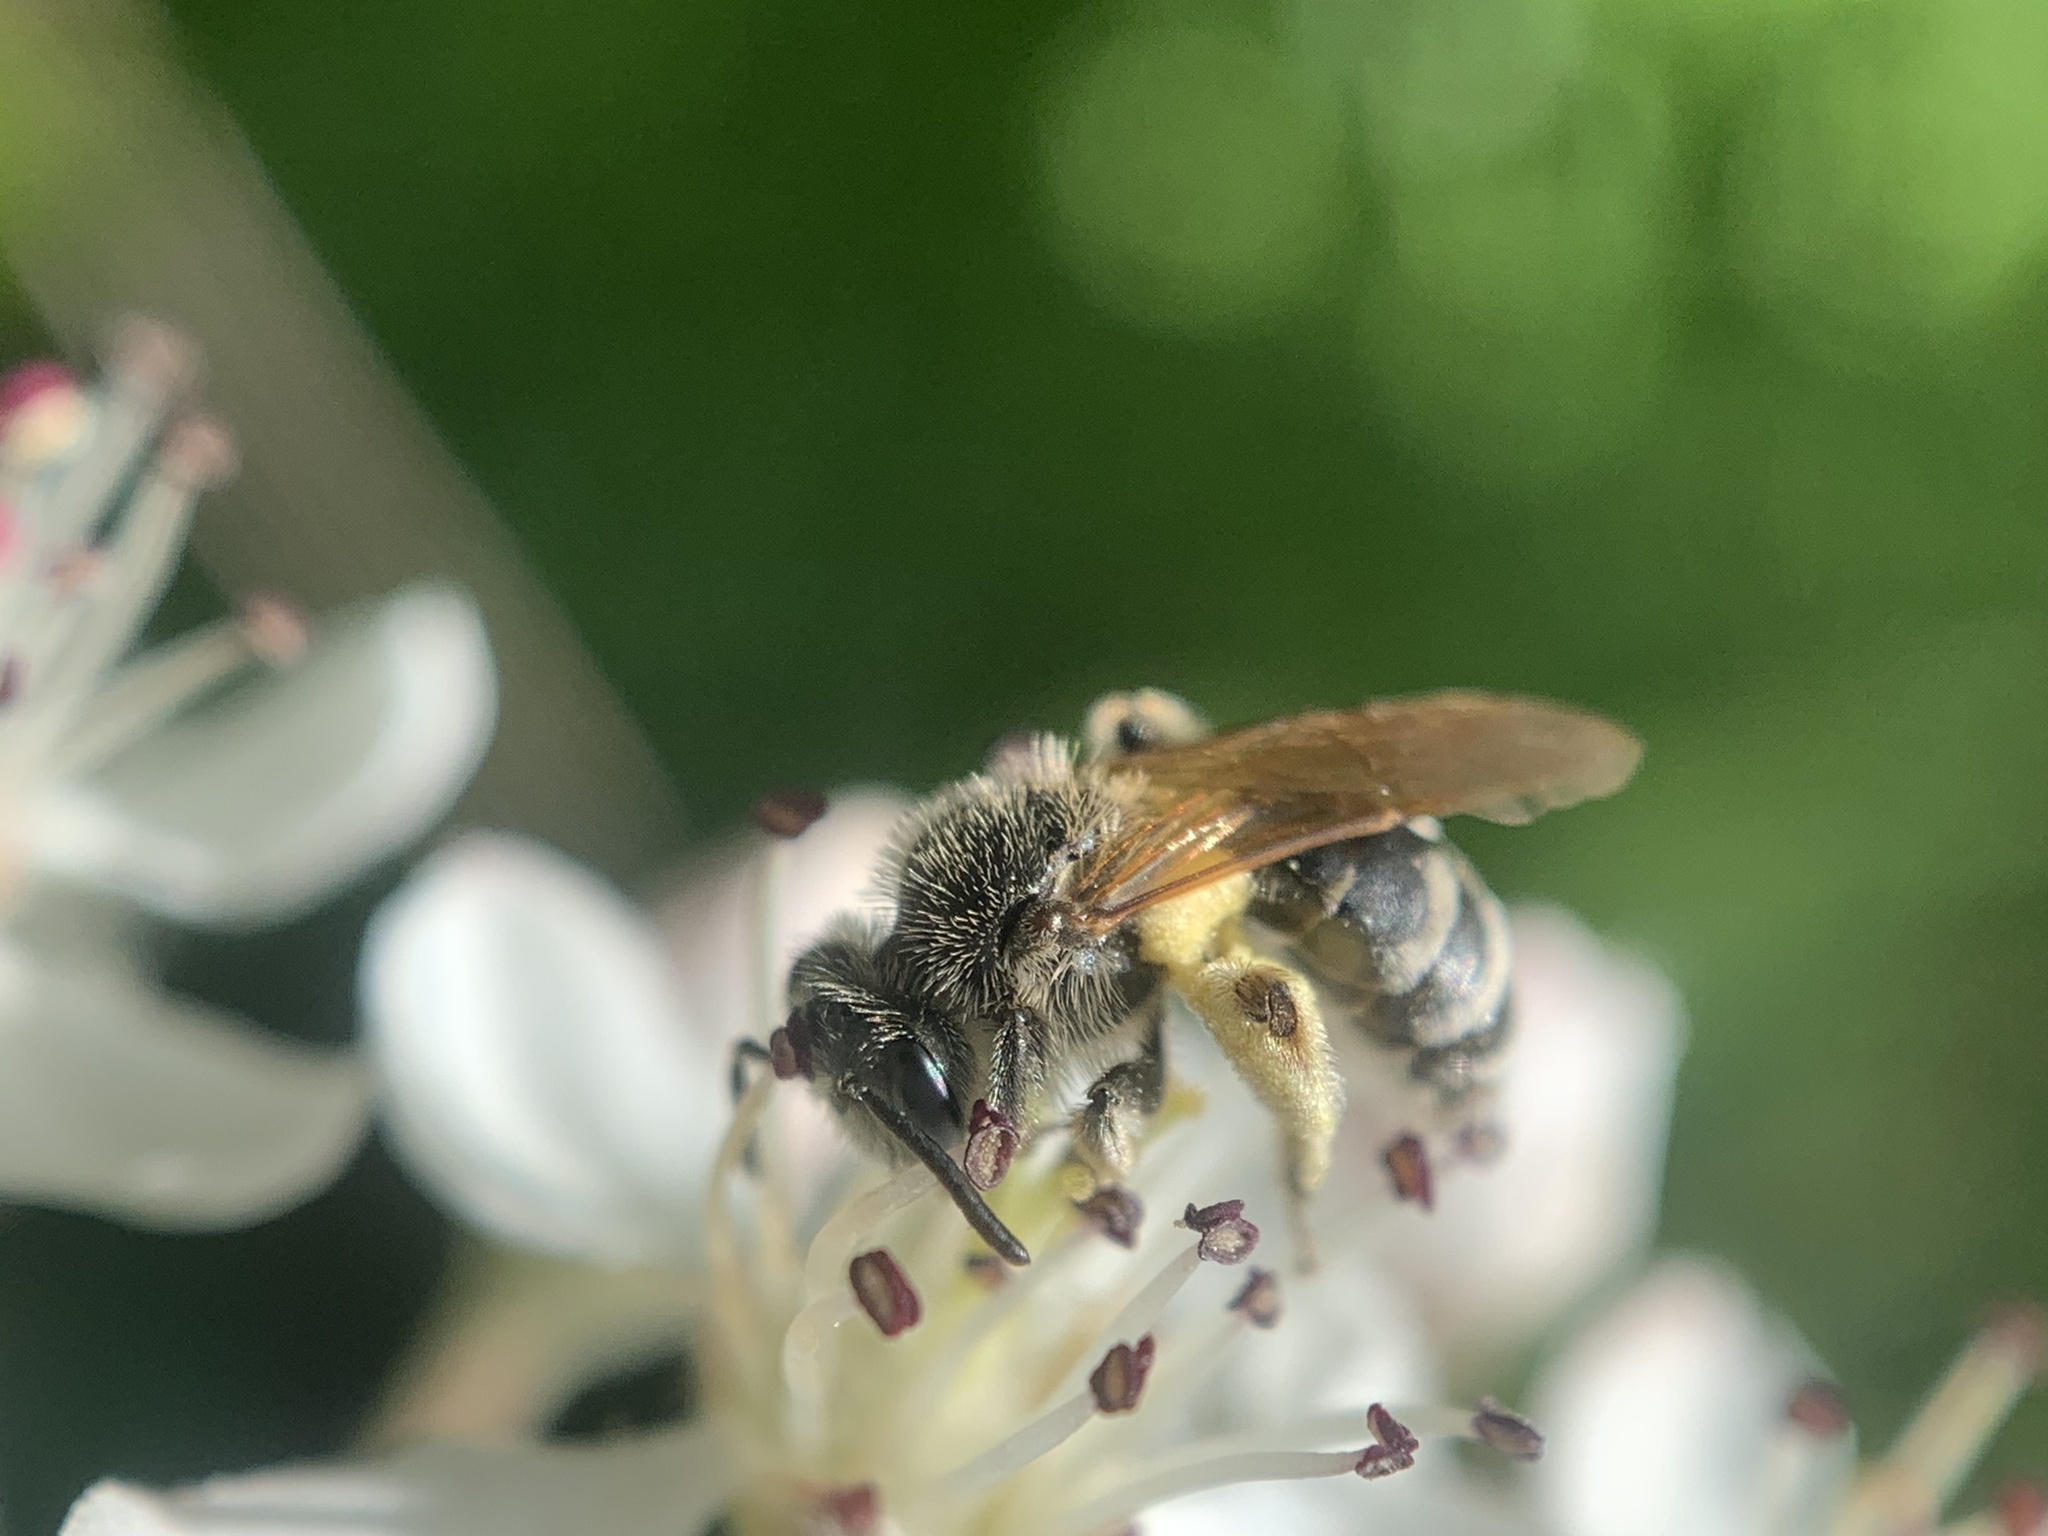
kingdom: Animalia
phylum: Arthropoda
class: Insecta
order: Hymenoptera
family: Andrenidae
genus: Andrena
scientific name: Andrena
